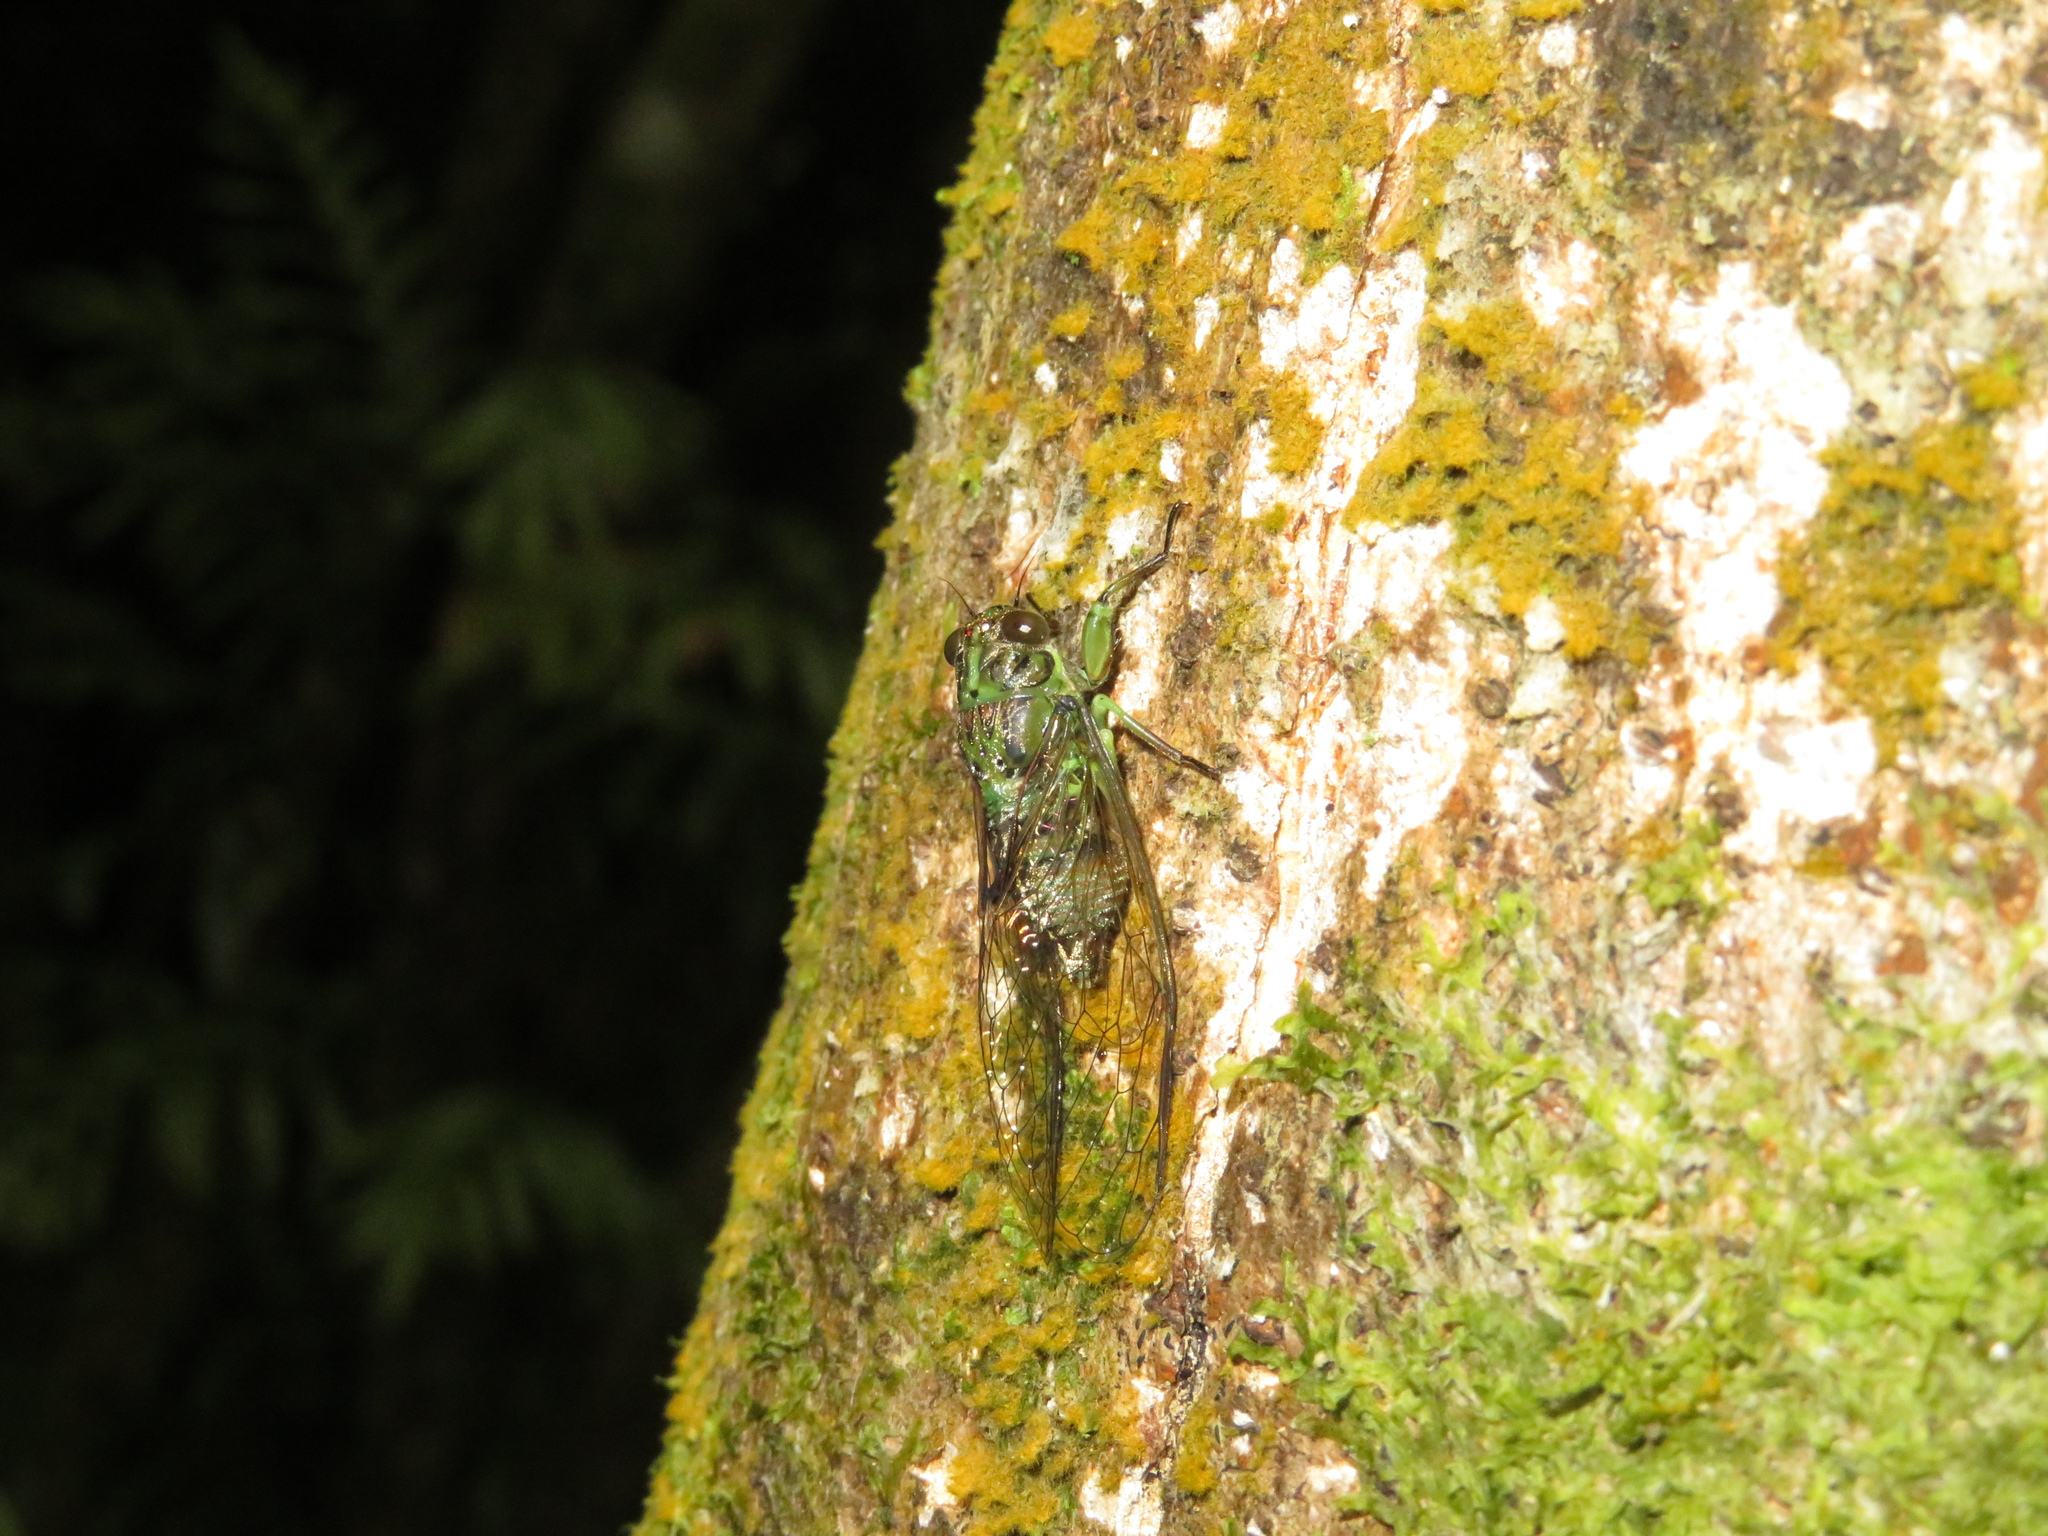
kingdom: Animalia
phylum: Arthropoda
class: Insecta
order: Hemiptera
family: Cicadidae
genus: Kikihia
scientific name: Kikihia scutellaris
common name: Lesser bronze cicada
